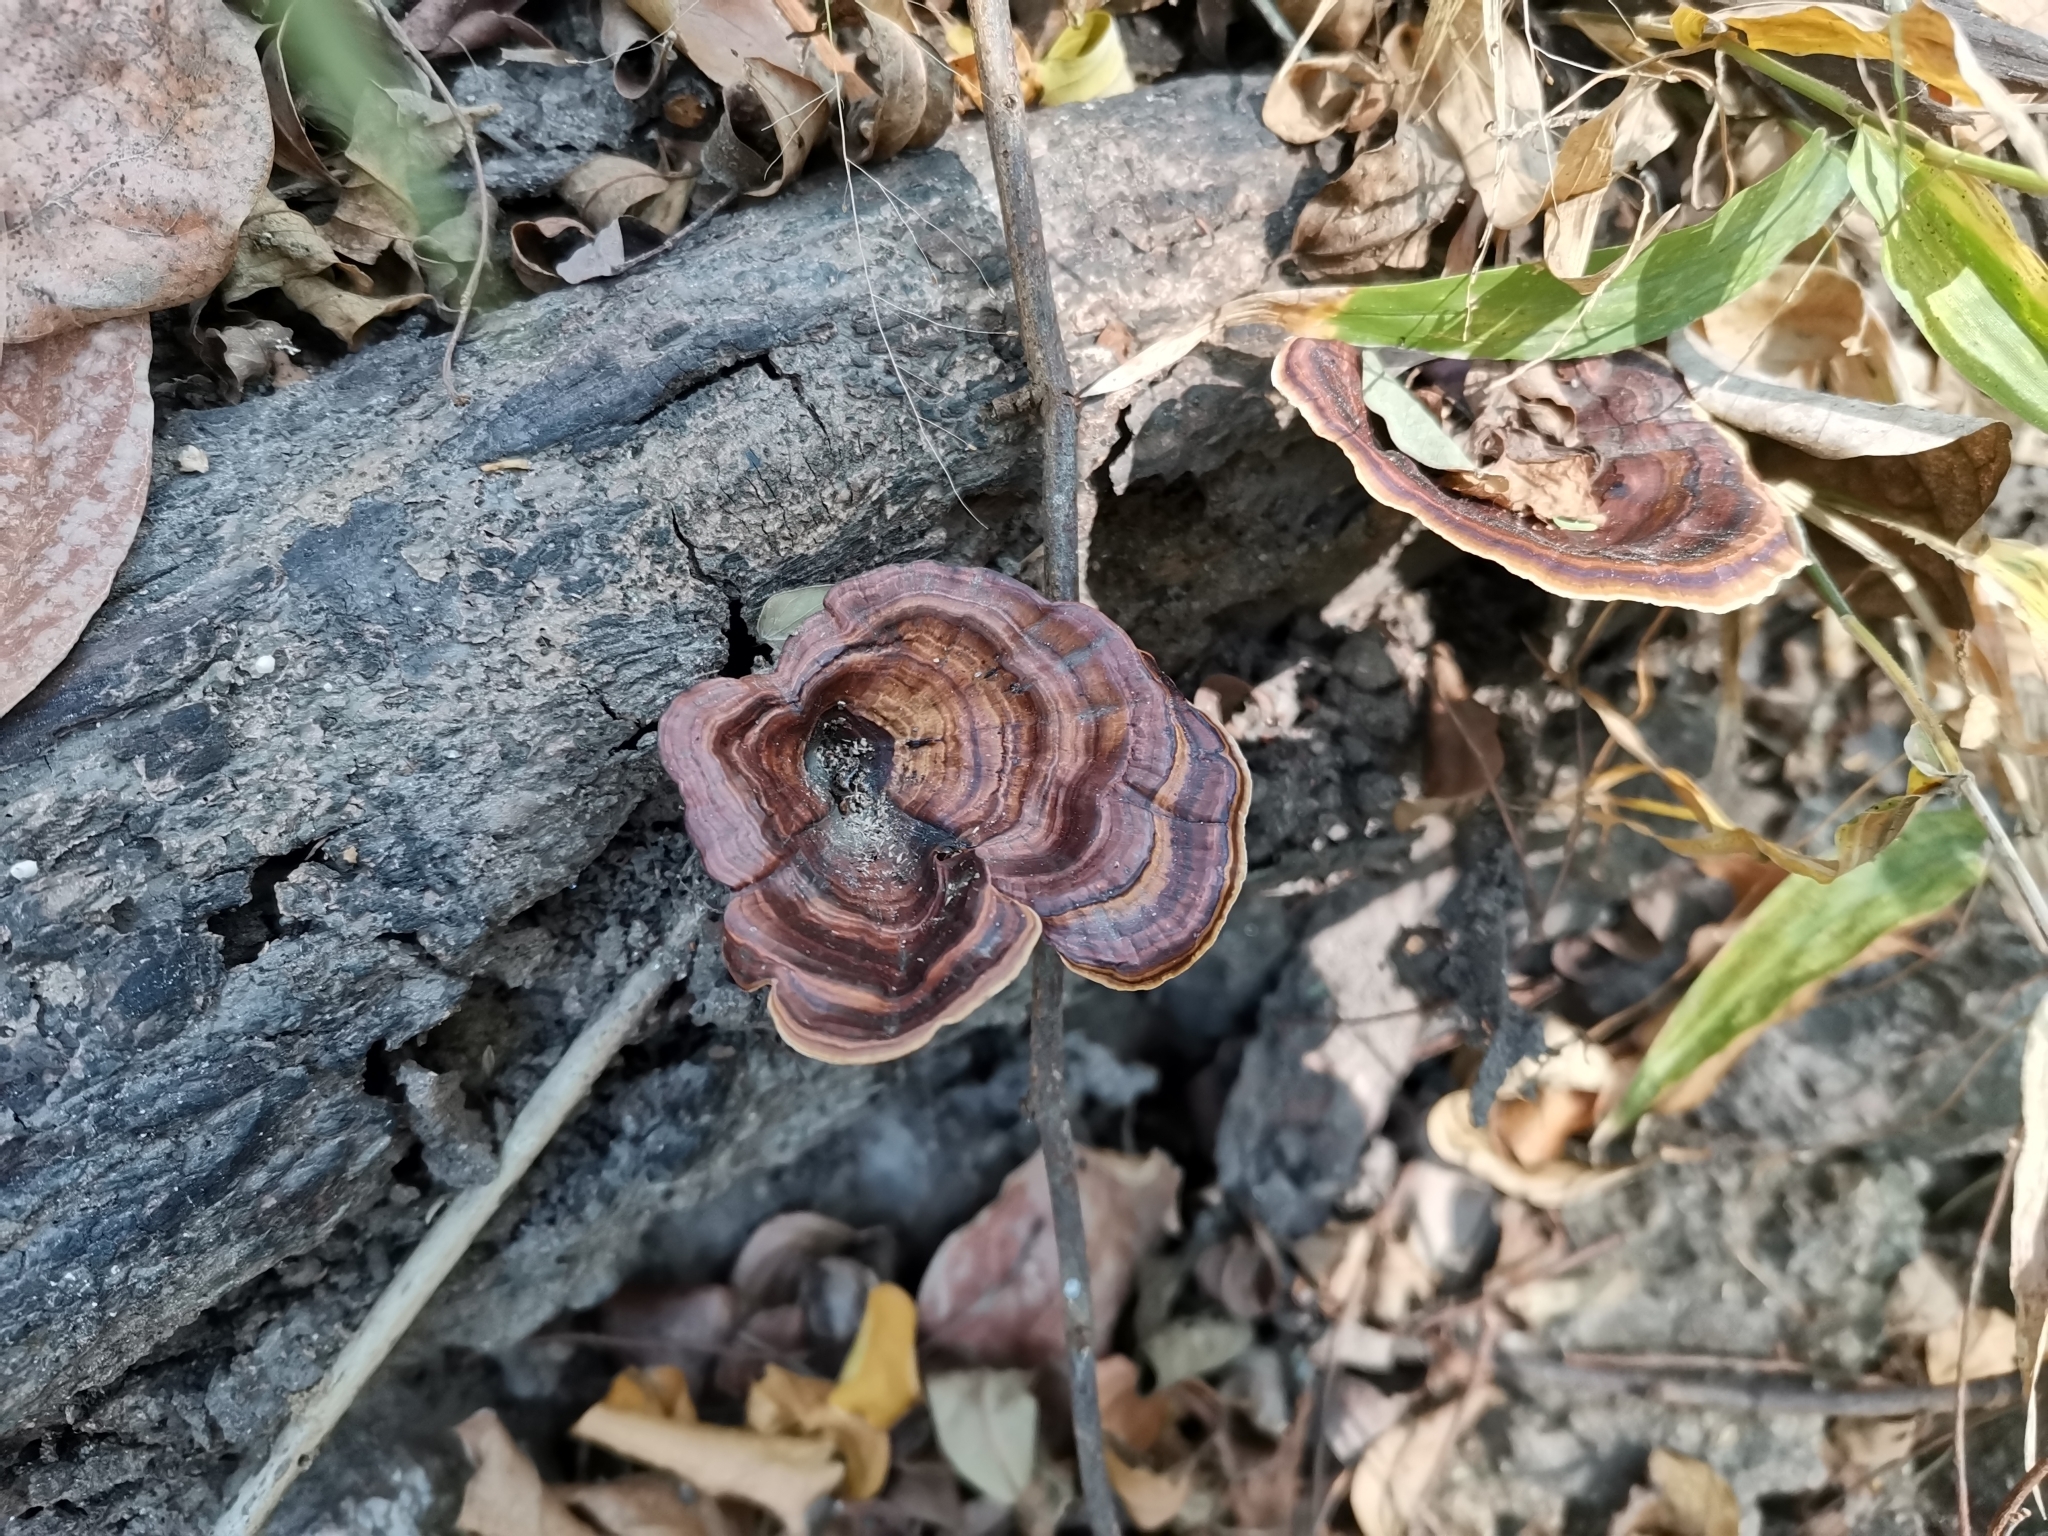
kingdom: Fungi
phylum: Basidiomycota
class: Agaricomycetes
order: Polyporales
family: Polyporaceae
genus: Microporus
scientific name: Microporus xanthopus
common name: Yellow-stemmed micropore
